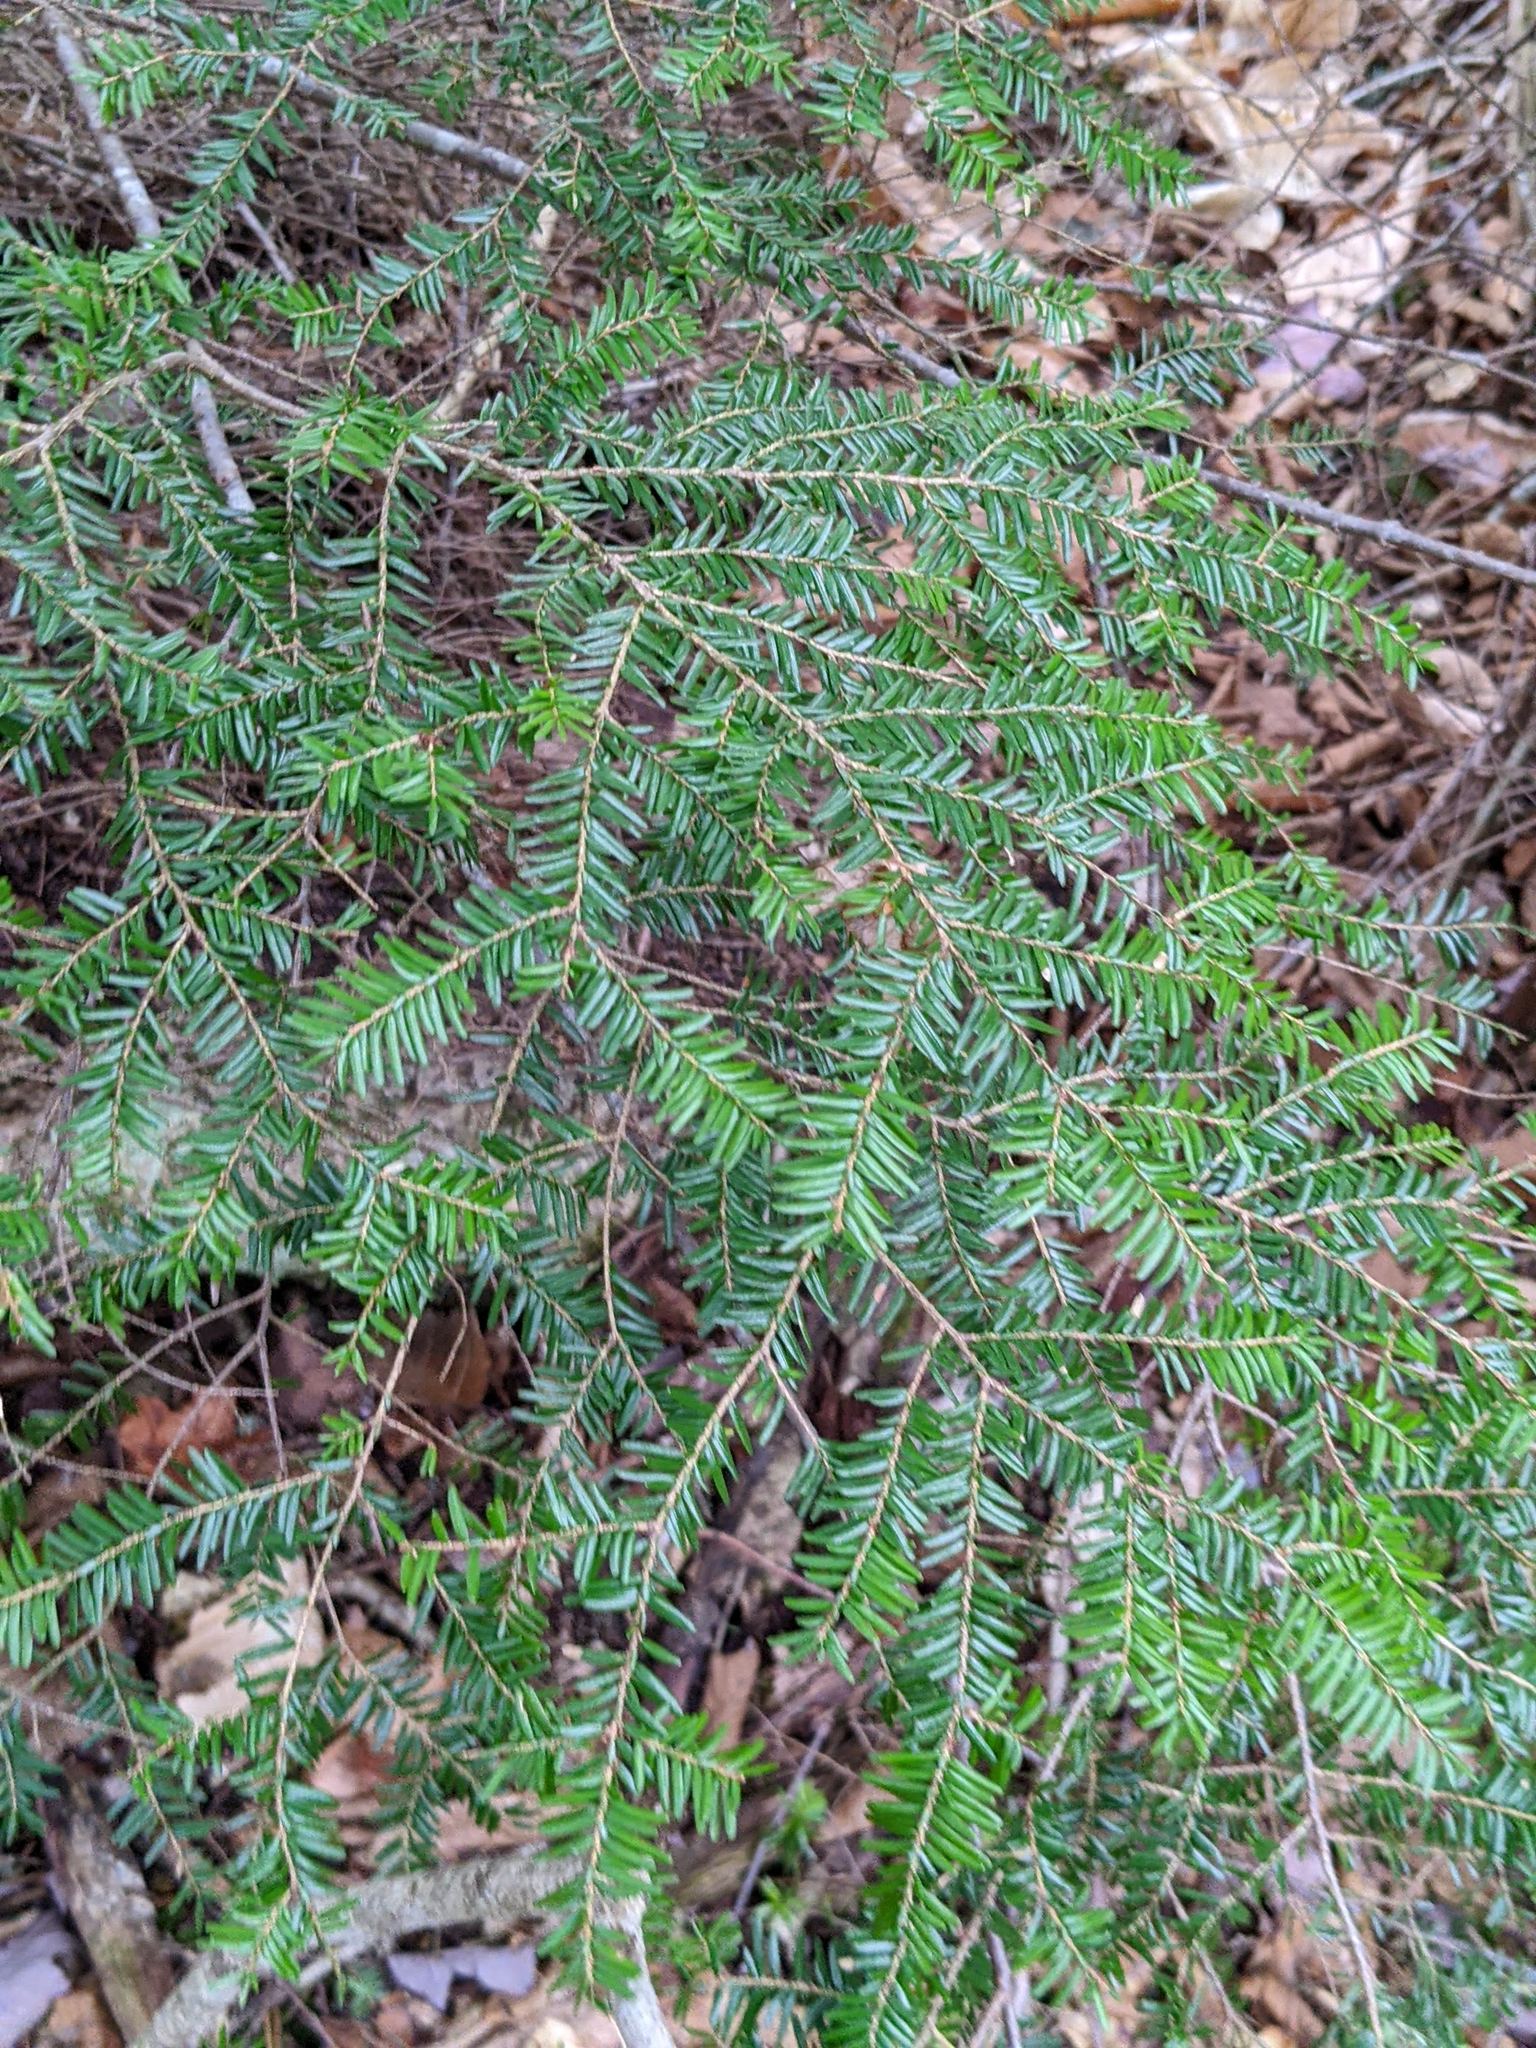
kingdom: Plantae
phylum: Tracheophyta
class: Pinopsida
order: Pinales
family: Pinaceae
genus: Tsuga
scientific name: Tsuga canadensis
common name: Eastern hemlock
